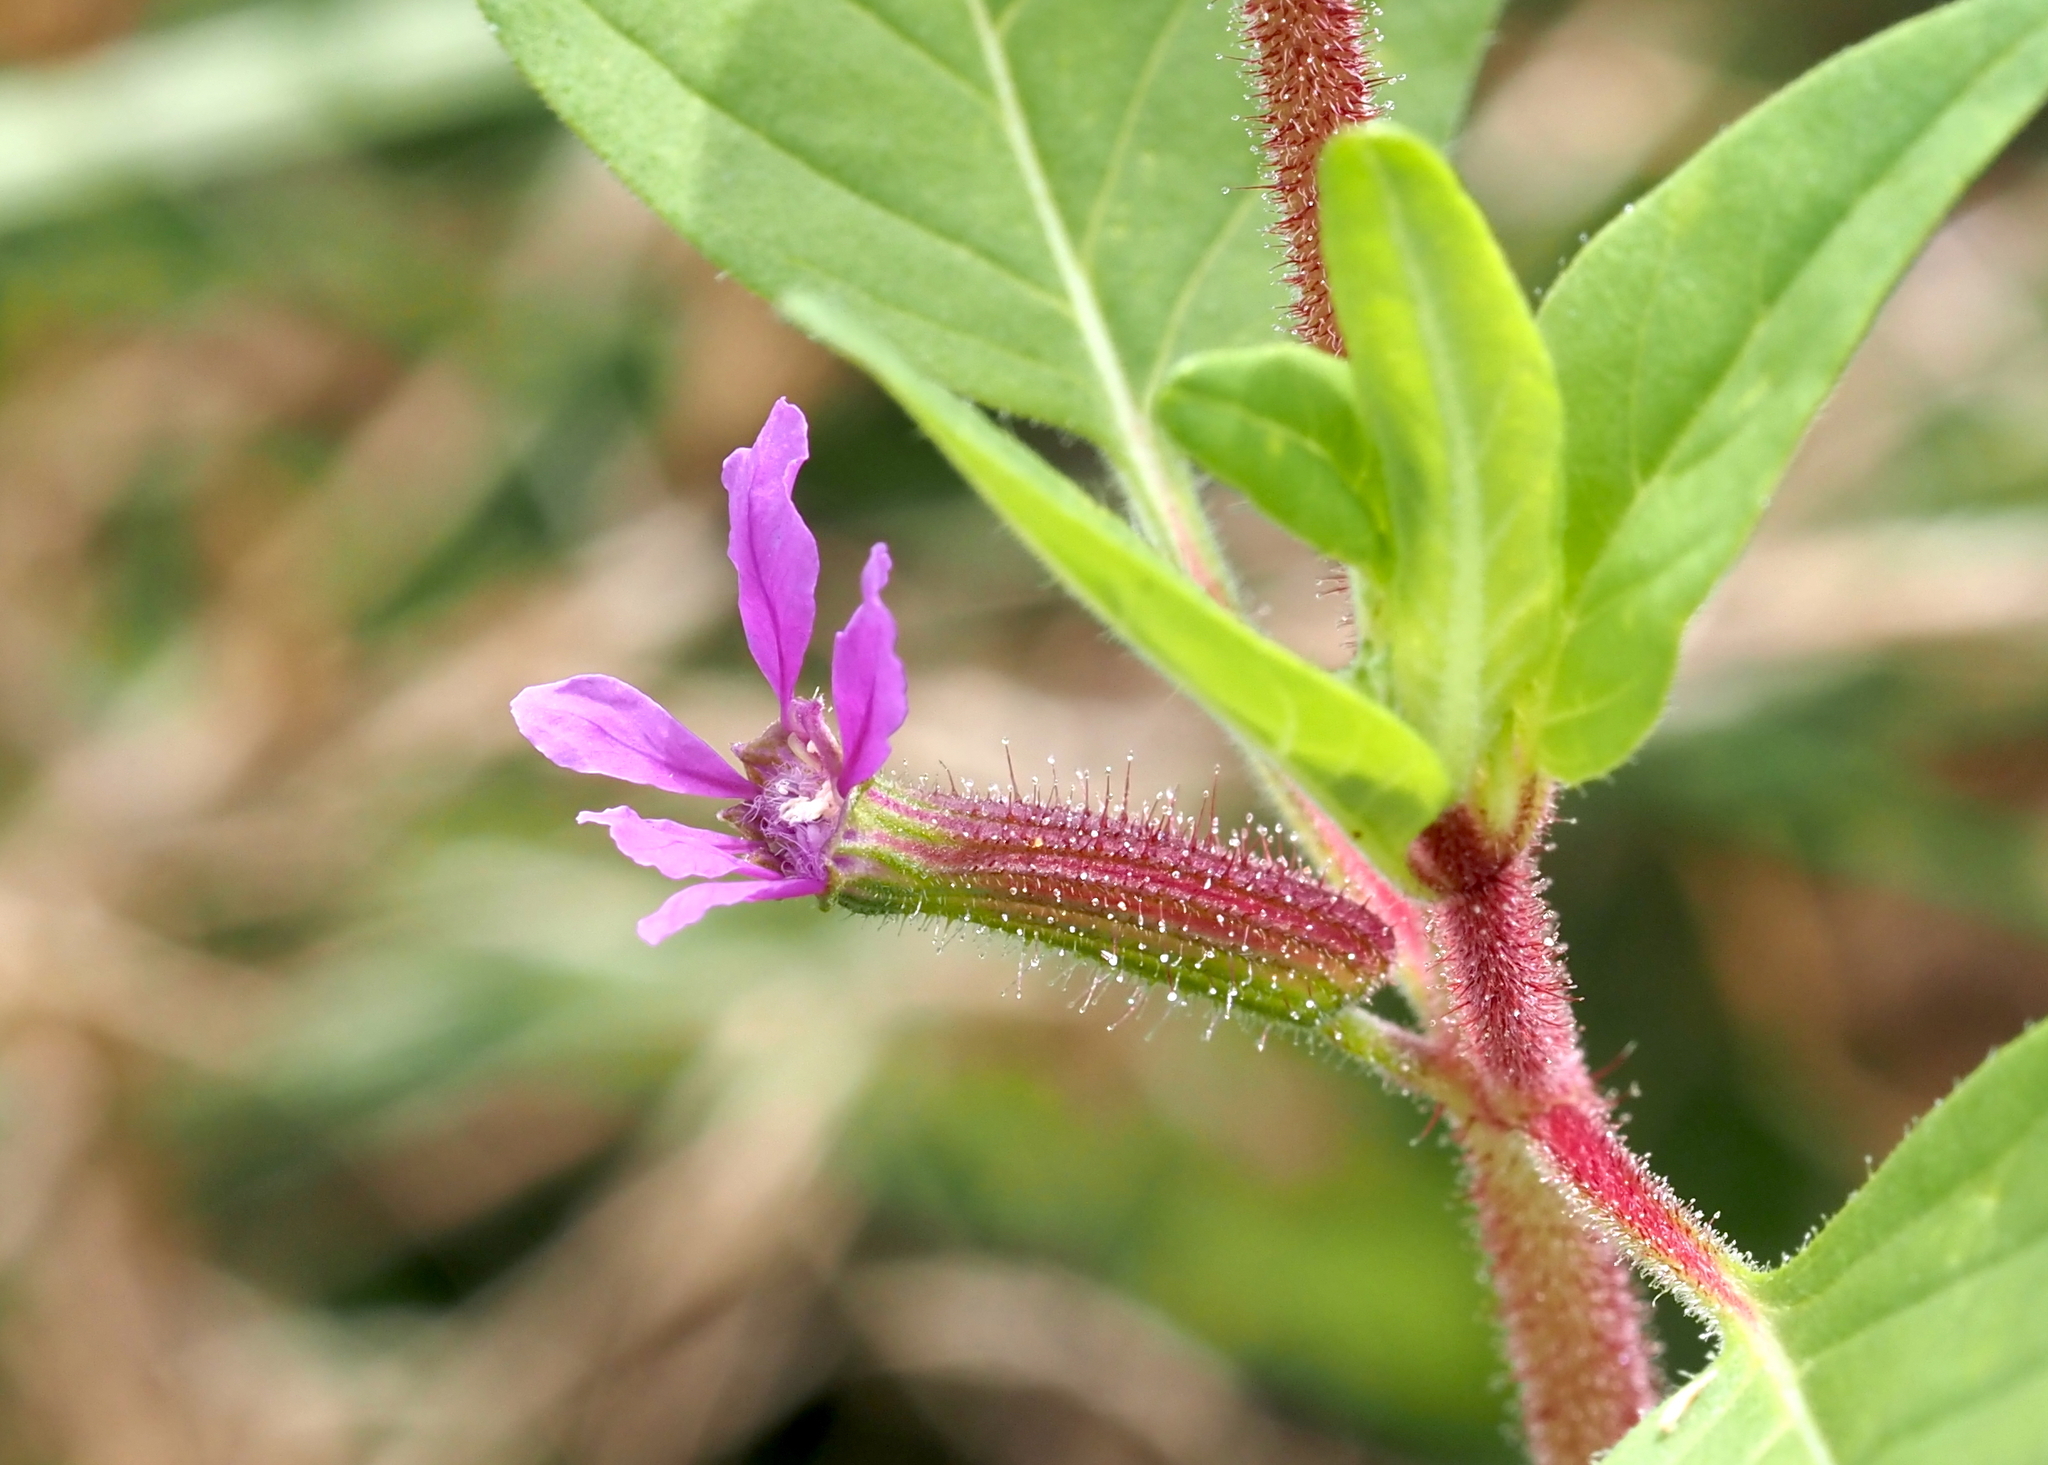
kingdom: Plantae
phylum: Tracheophyta
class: Magnoliopsida
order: Myrtales
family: Lythraceae
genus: Cuphea
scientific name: Cuphea viscosissima
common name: Clammy cuphea
